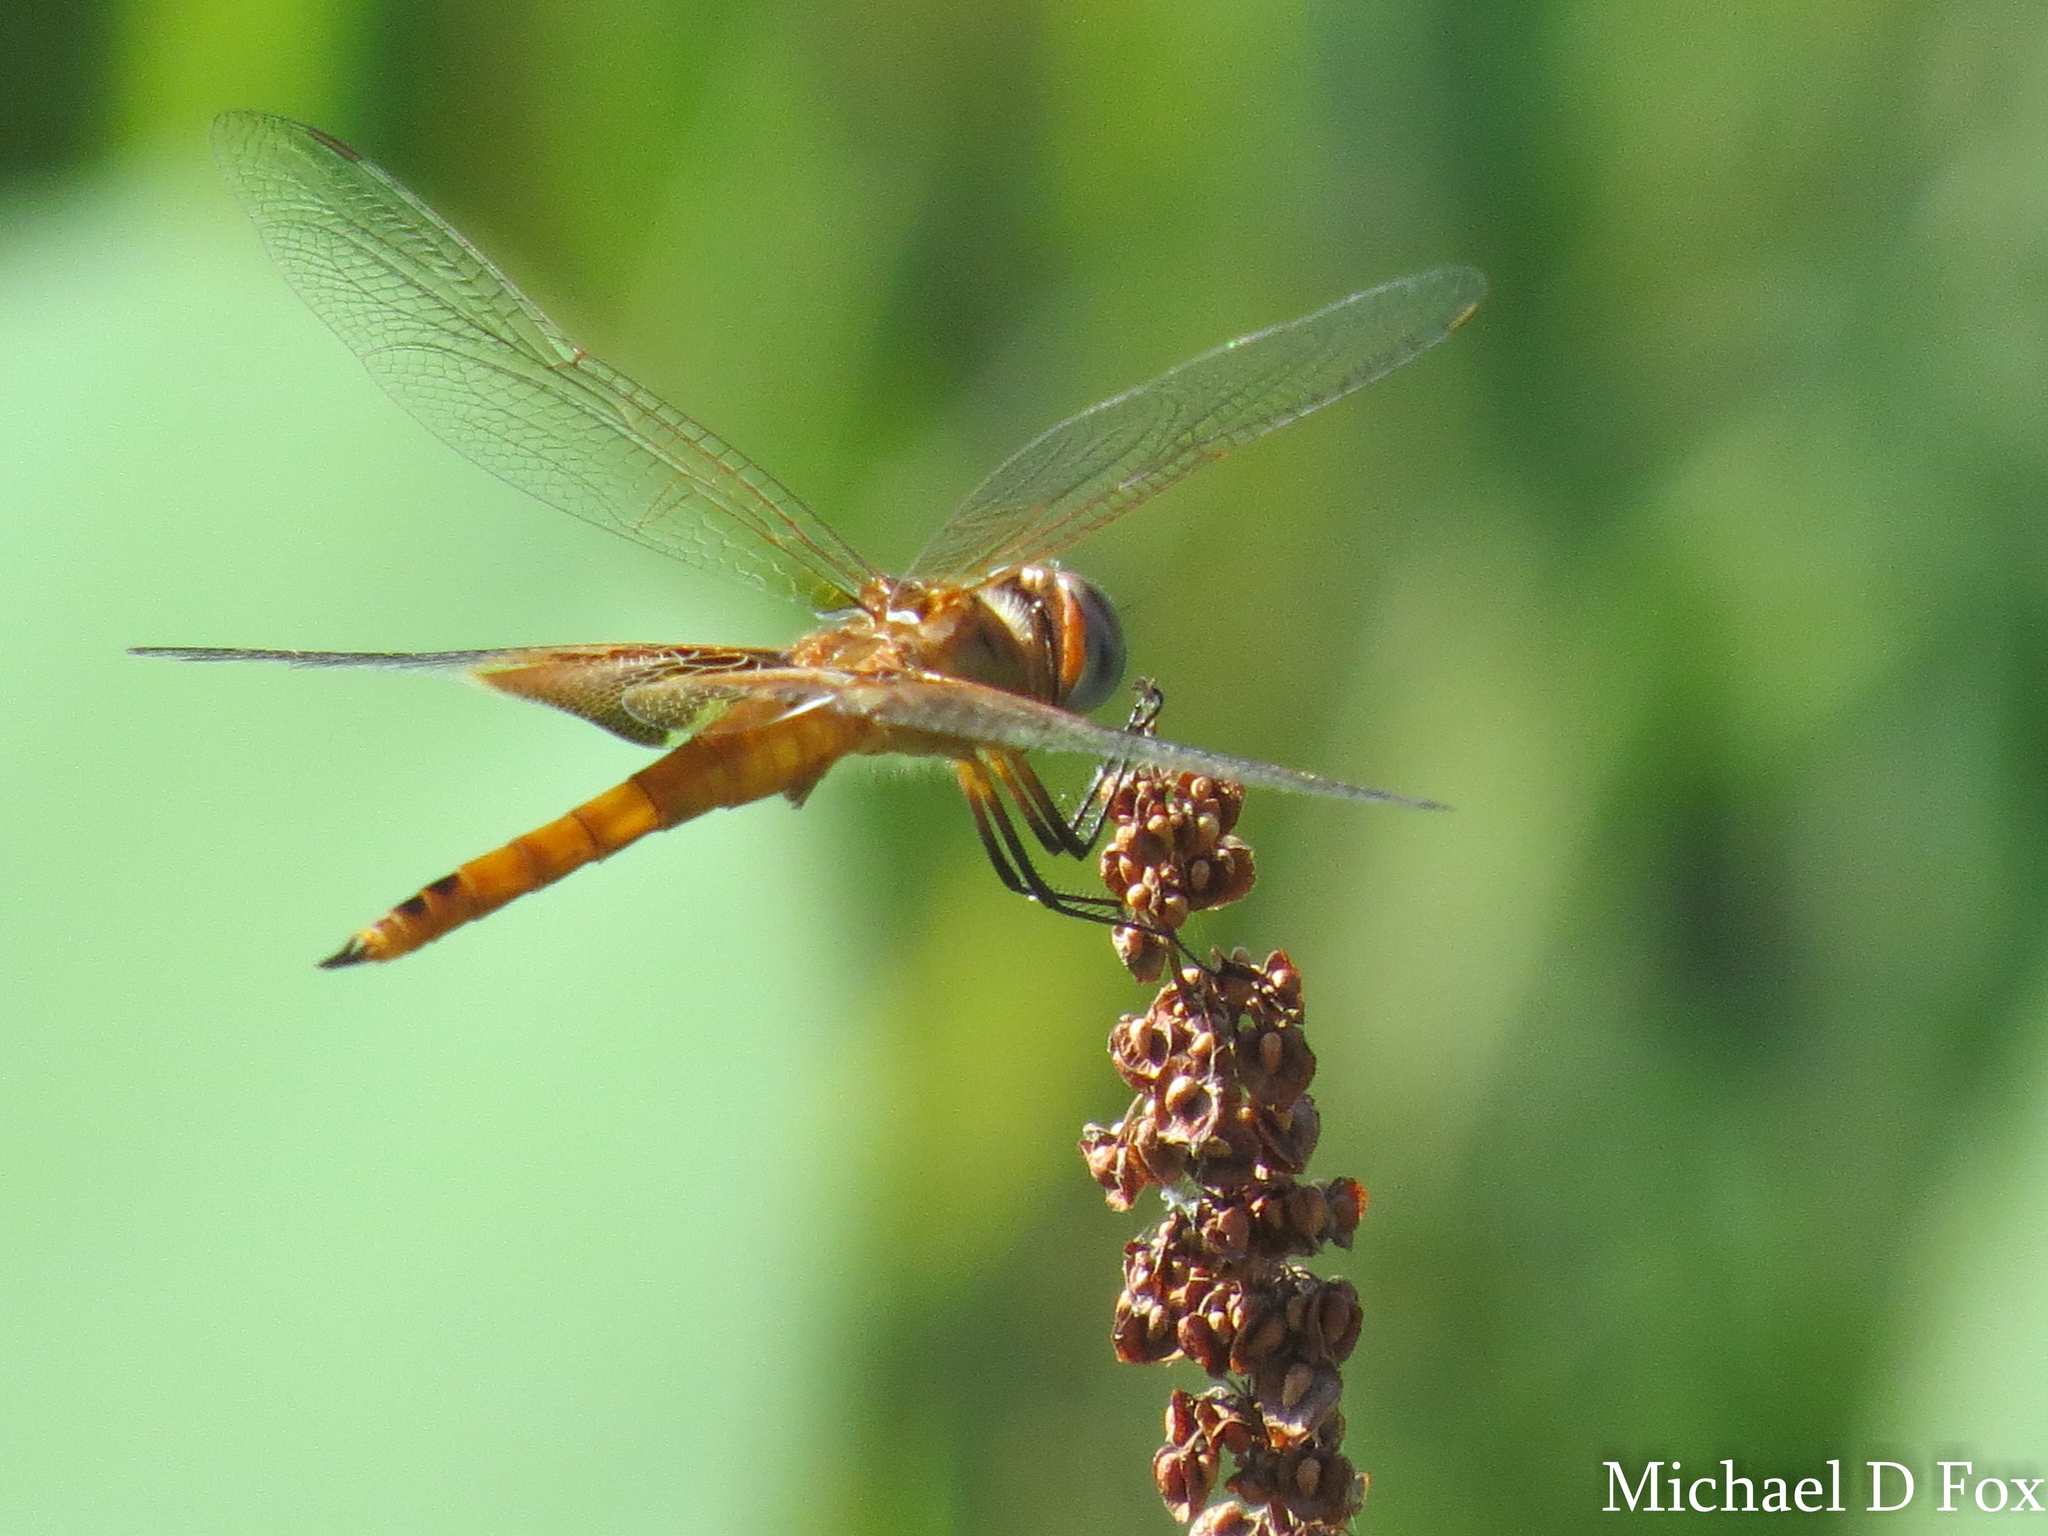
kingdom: Animalia
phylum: Arthropoda
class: Insecta
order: Odonata
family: Libellulidae
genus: Tramea
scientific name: Tramea onusta
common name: Red saddlebags
